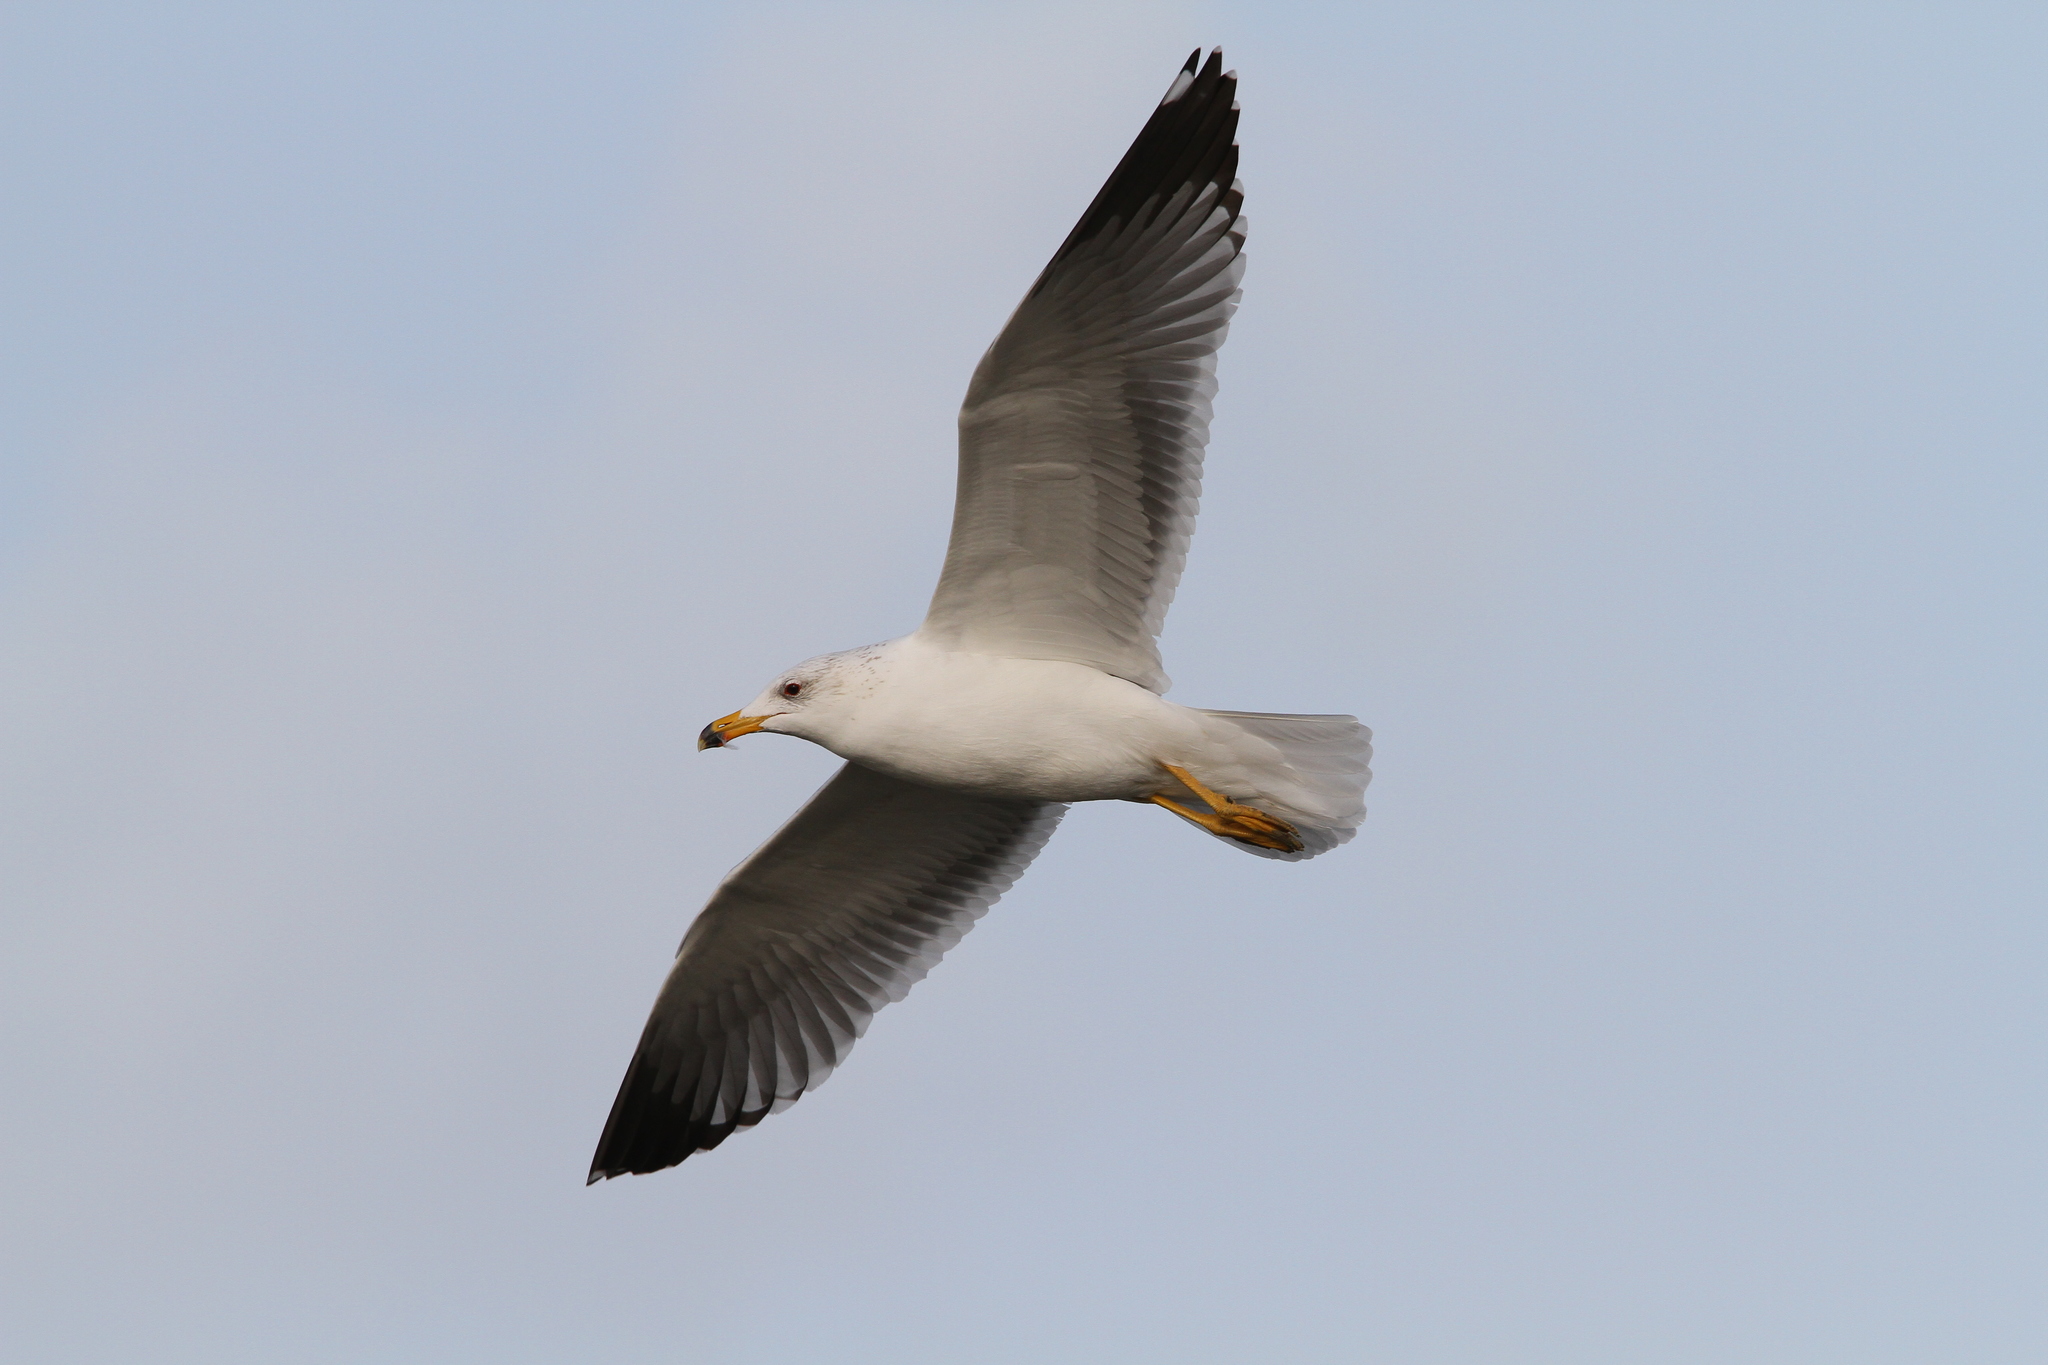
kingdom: Animalia
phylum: Chordata
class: Aves
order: Charadriiformes
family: Laridae
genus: Larus
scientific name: Larus armenicus
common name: Armenian gull
